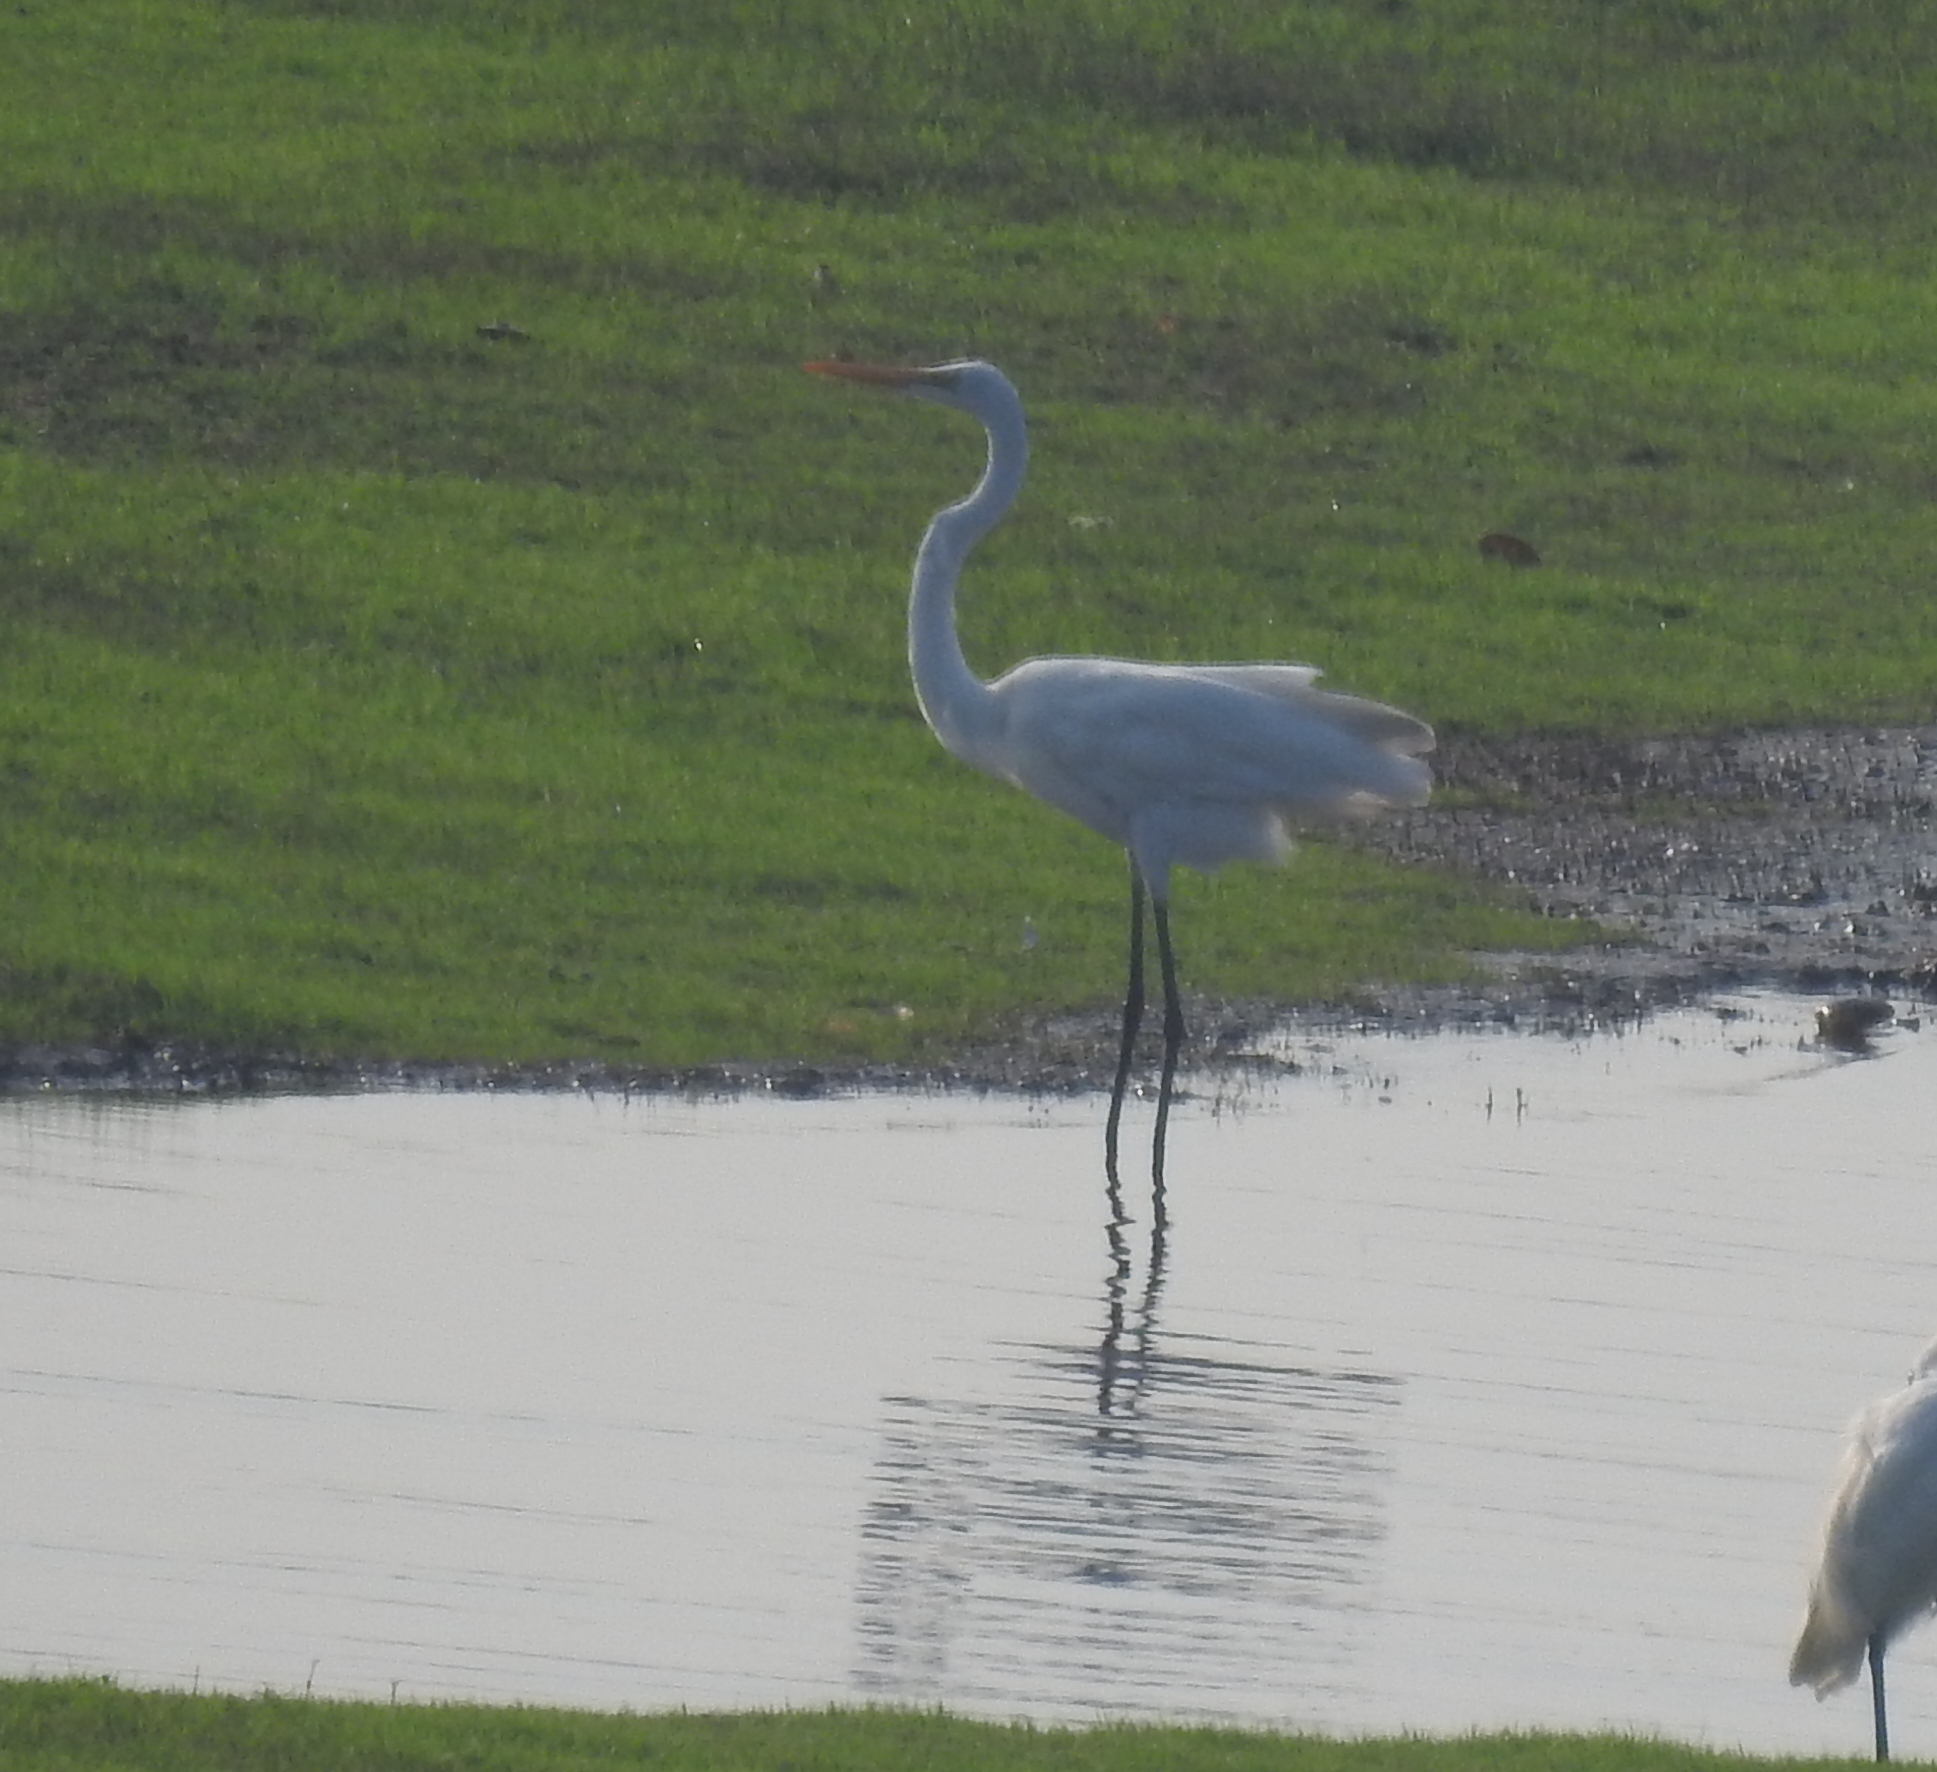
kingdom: Animalia
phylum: Chordata
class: Aves
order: Pelecaniformes
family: Ardeidae
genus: Ardea
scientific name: Ardea alba
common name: Great egret
